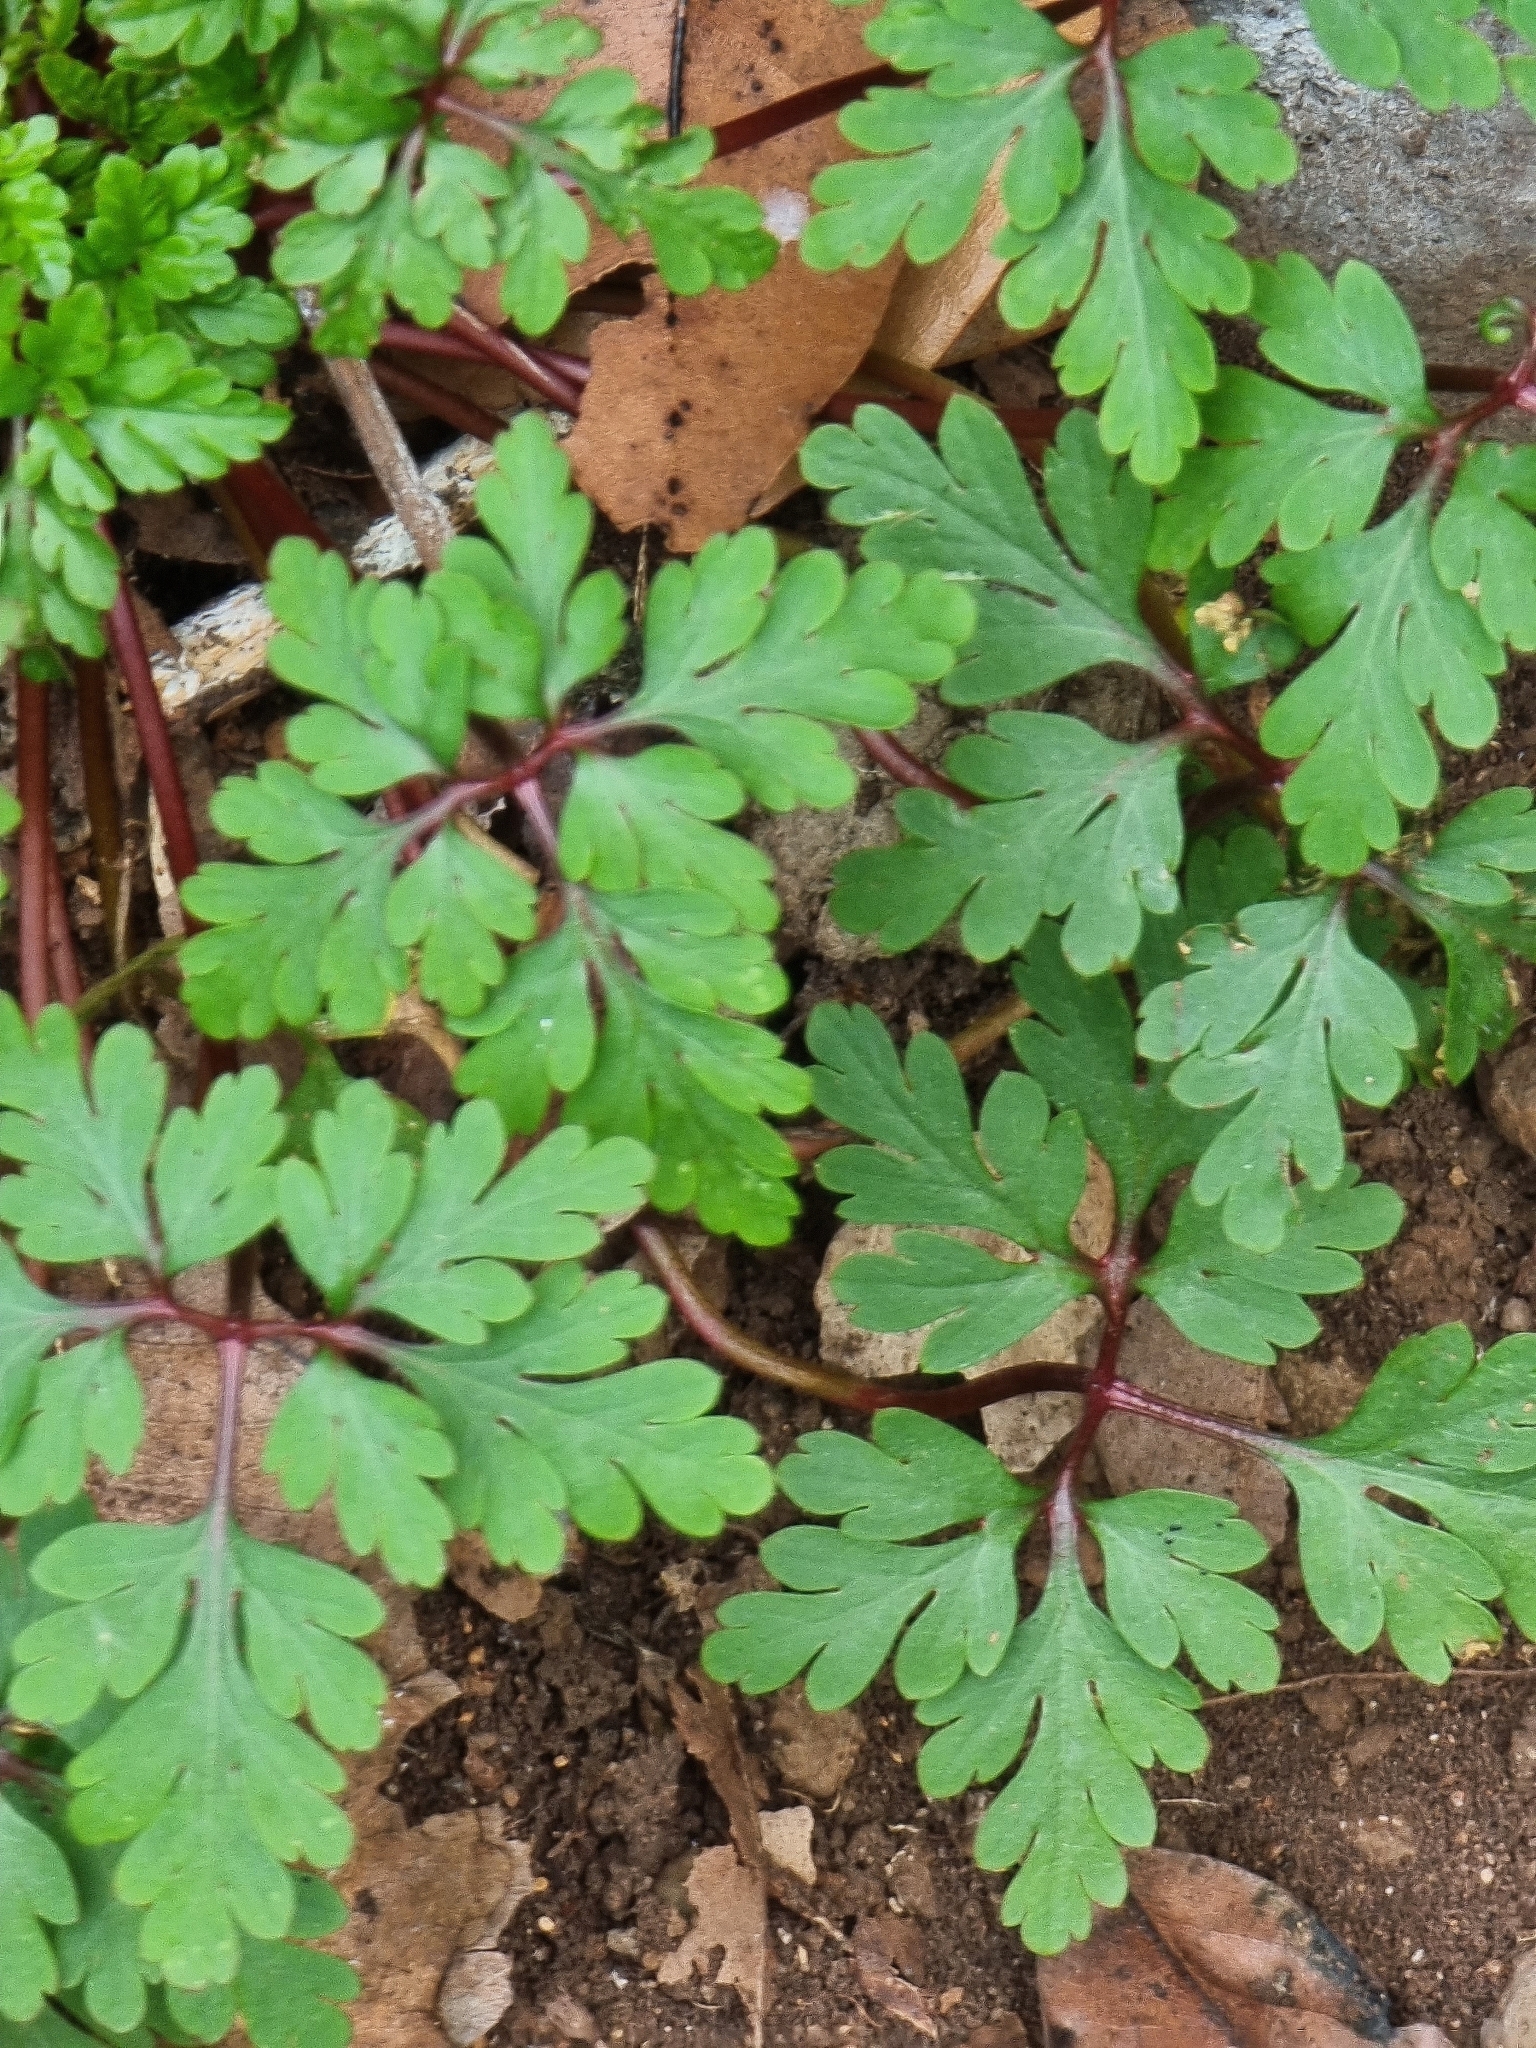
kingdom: Plantae
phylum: Tracheophyta
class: Magnoliopsida
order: Geraniales
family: Geraniaceae
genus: Geranium
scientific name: Geranium robertianum
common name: Herb-robert
